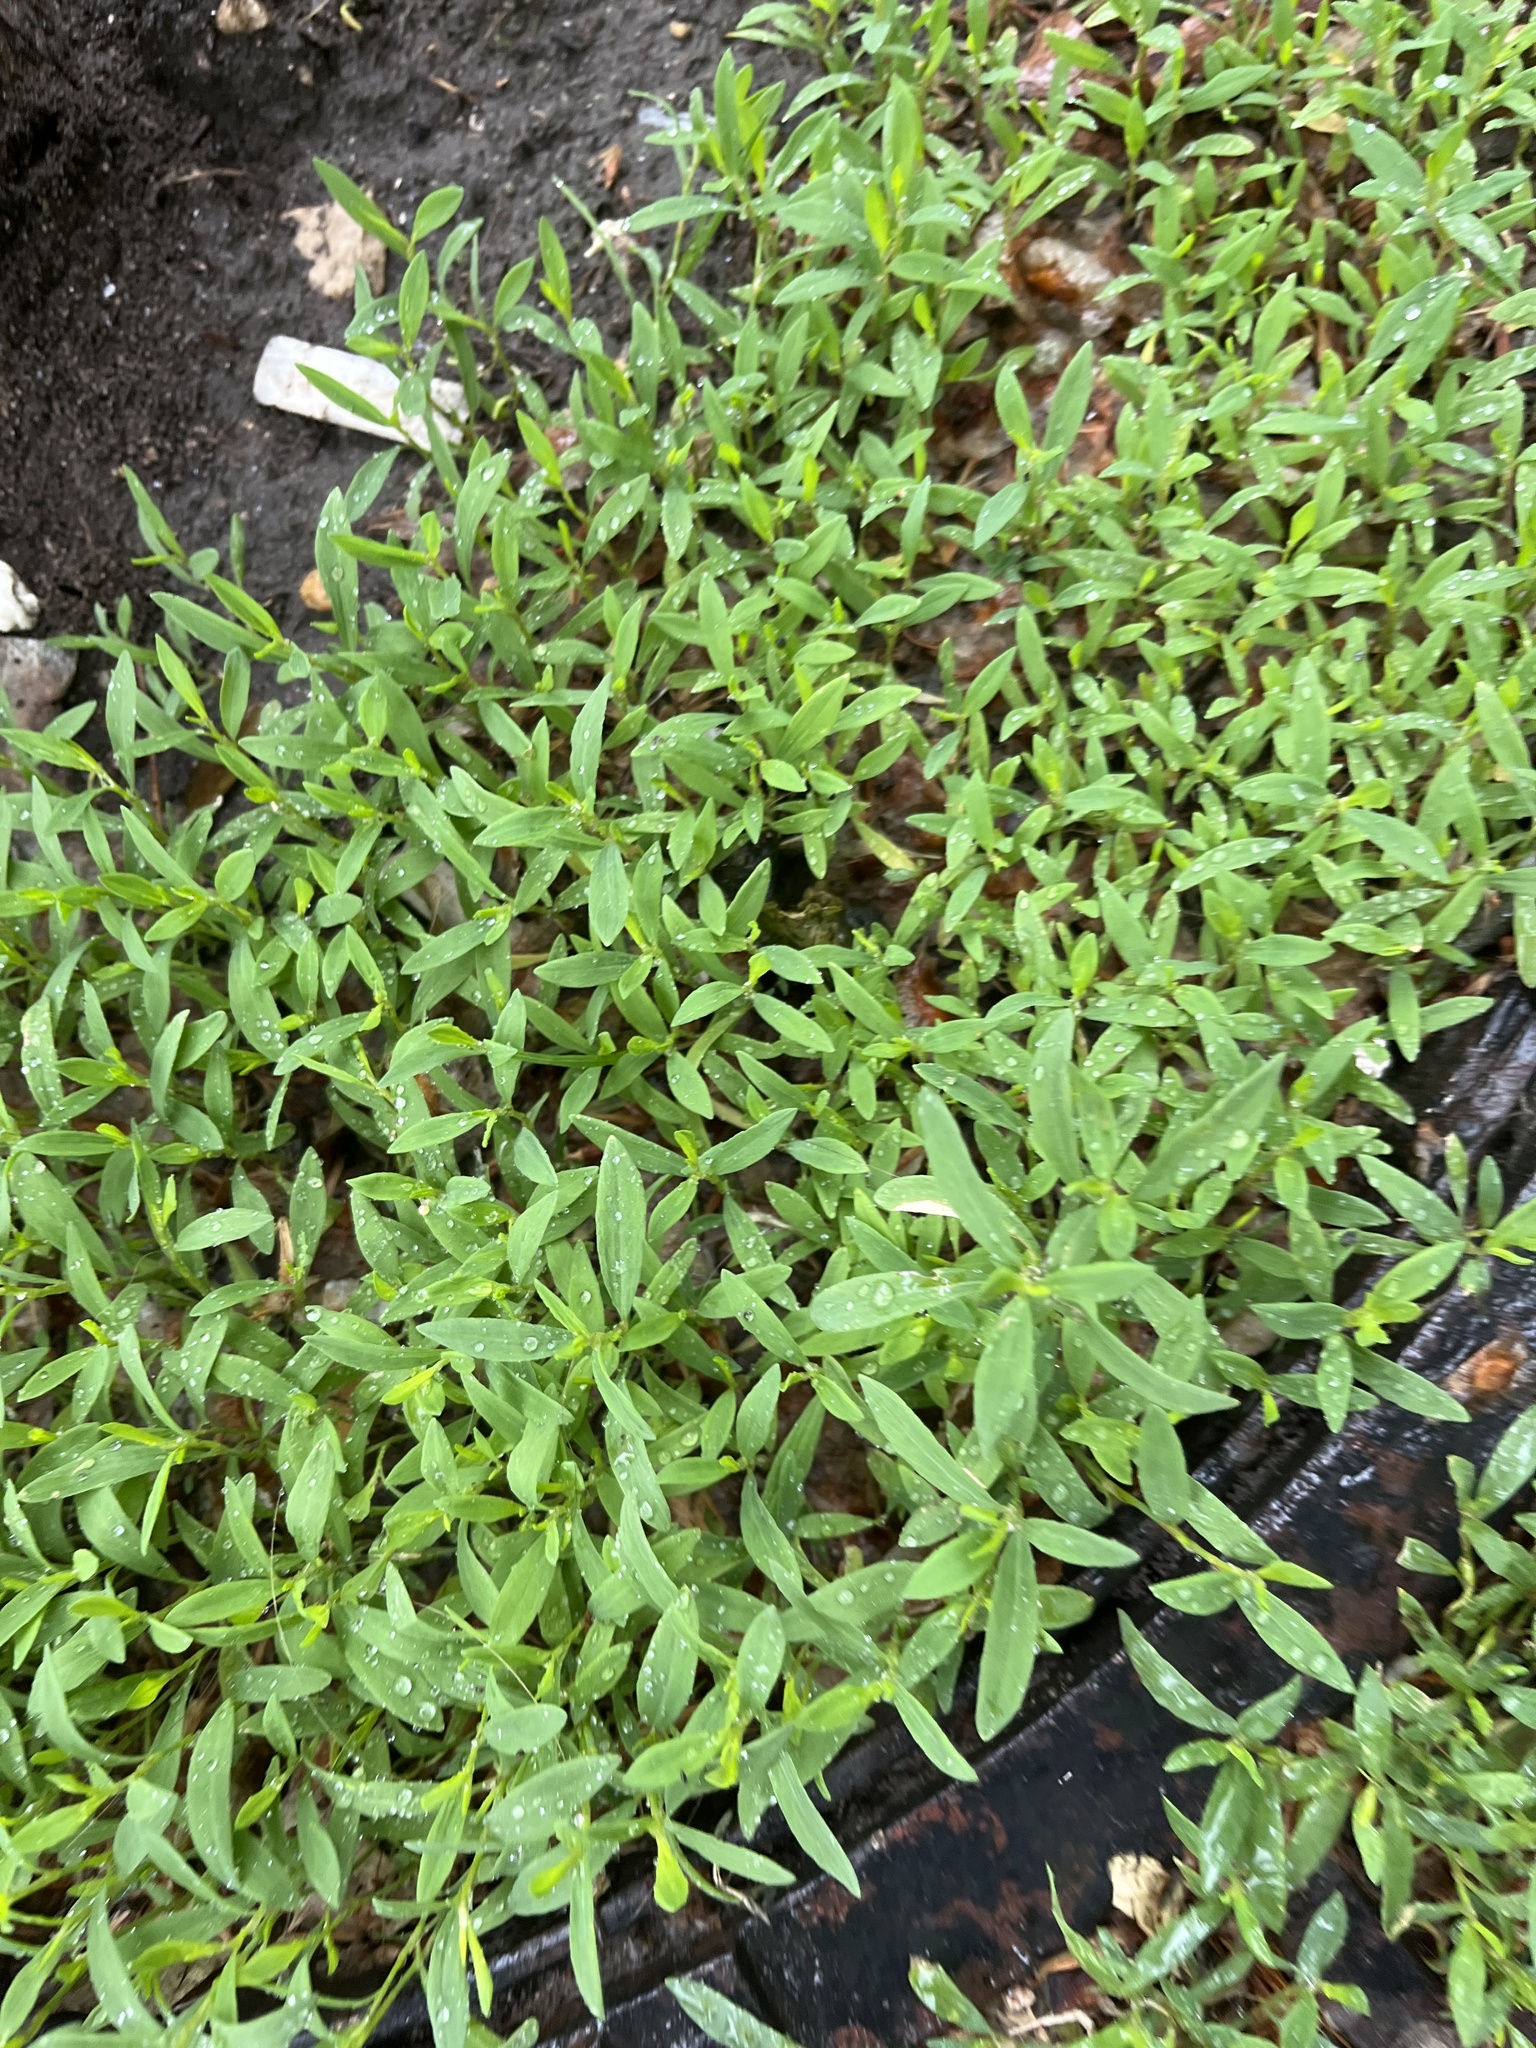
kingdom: Plantae
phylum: Tracheophyta
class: Magnoliopsida
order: Caryophyllales
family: Polygonaceae
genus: Polygonum
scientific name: Polygonum aviculare
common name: Prostrate knotweed
